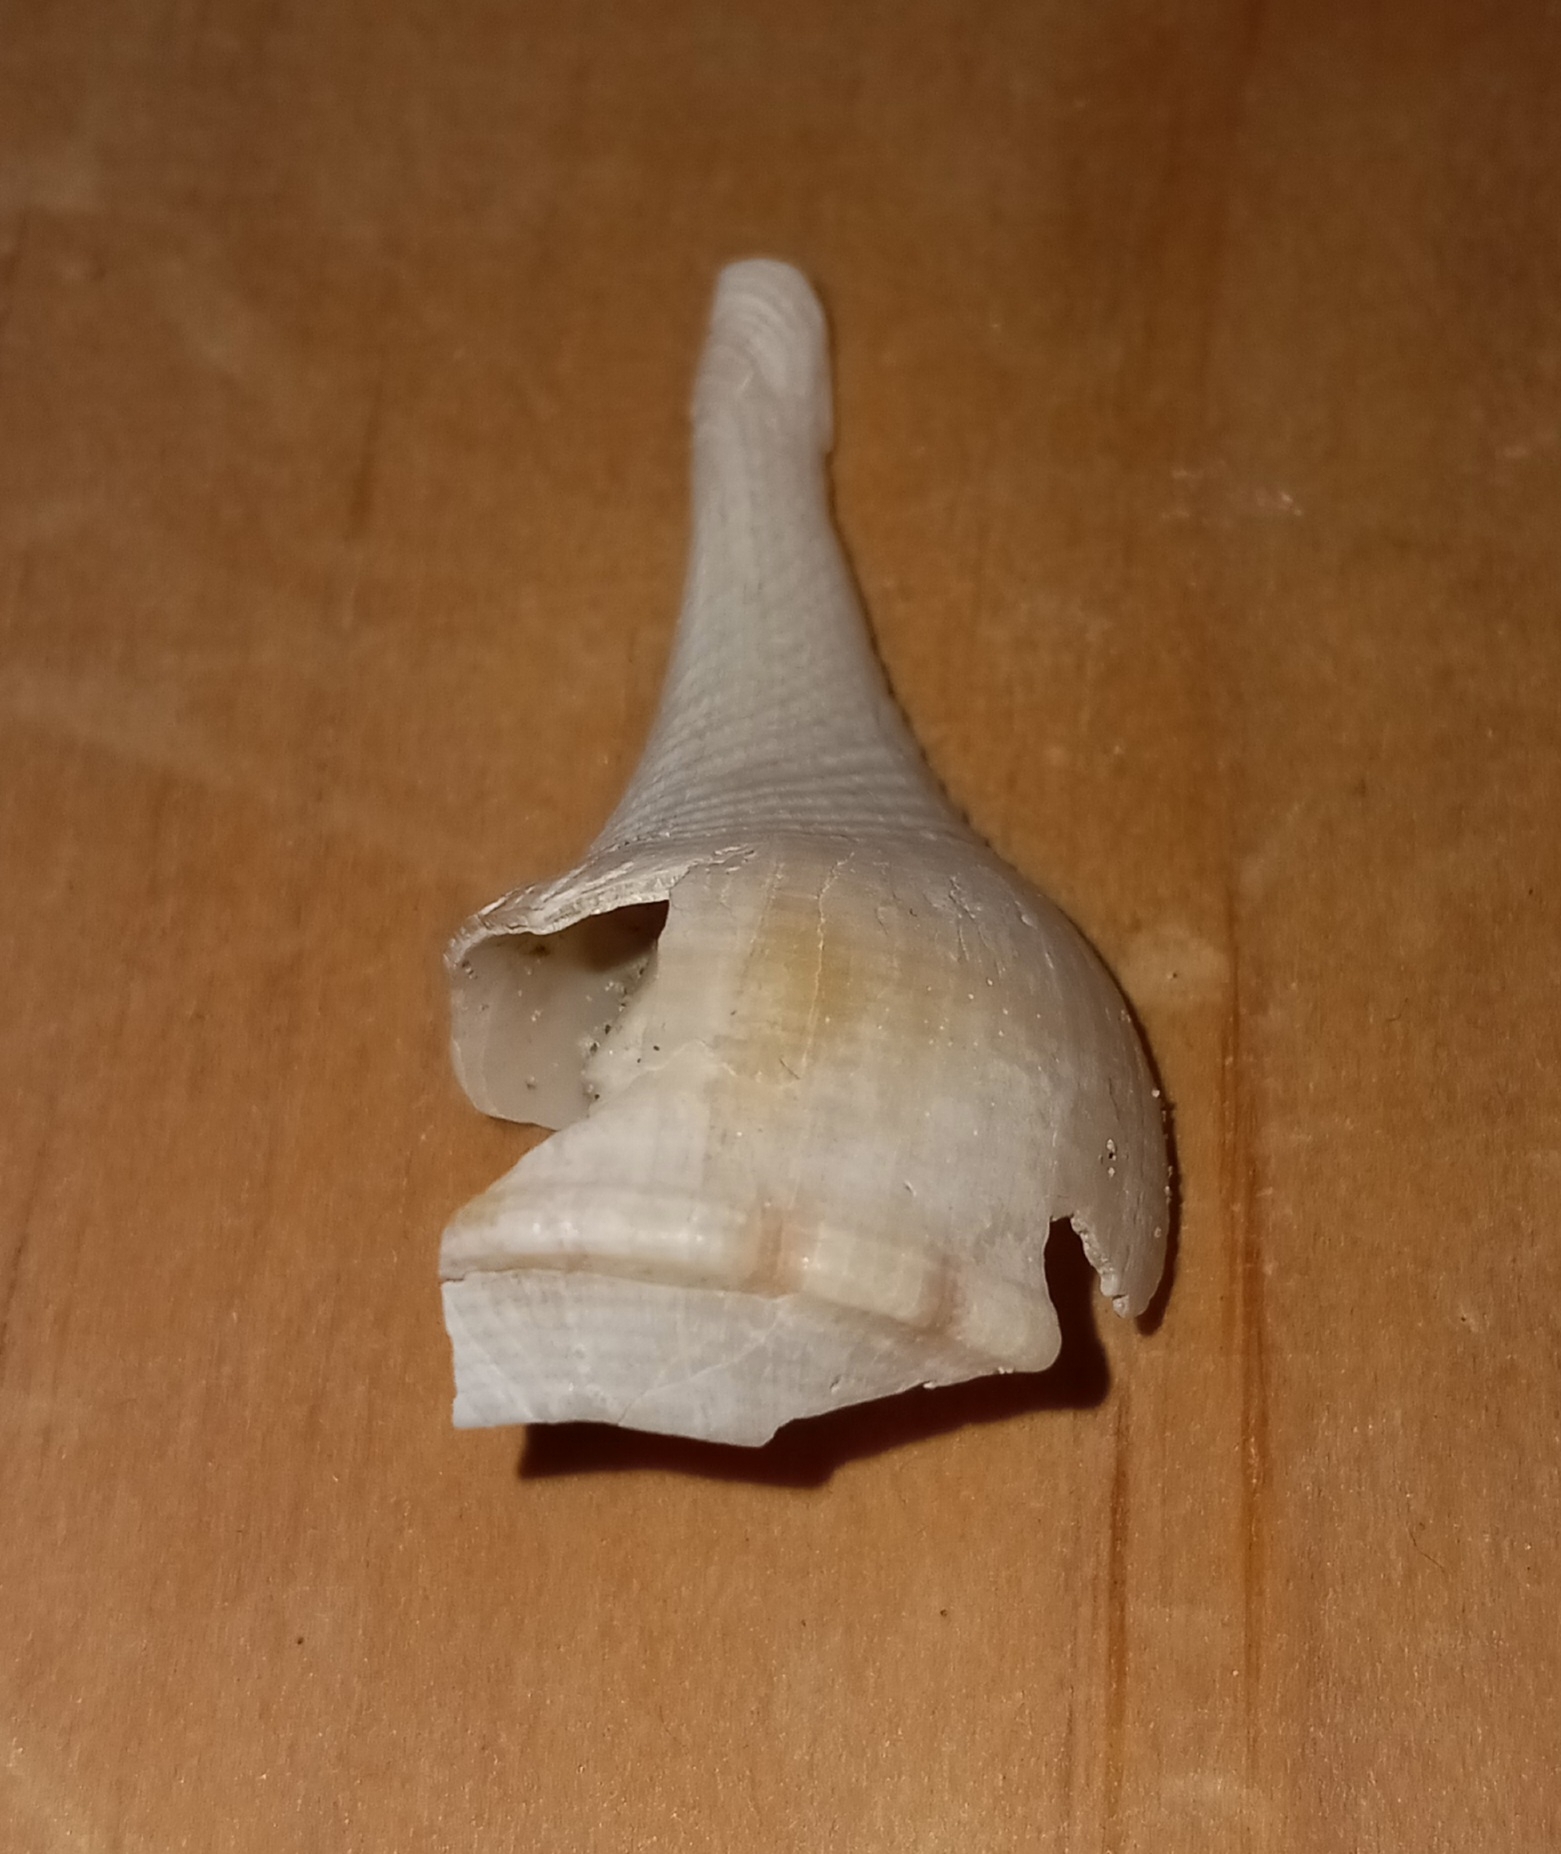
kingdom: Animalia
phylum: Mollusca
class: Gastropoda
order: Neogastropoda
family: Busyconidae
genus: Busycotypus
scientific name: Busycotypus canaliculatus
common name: Channeled whelk
